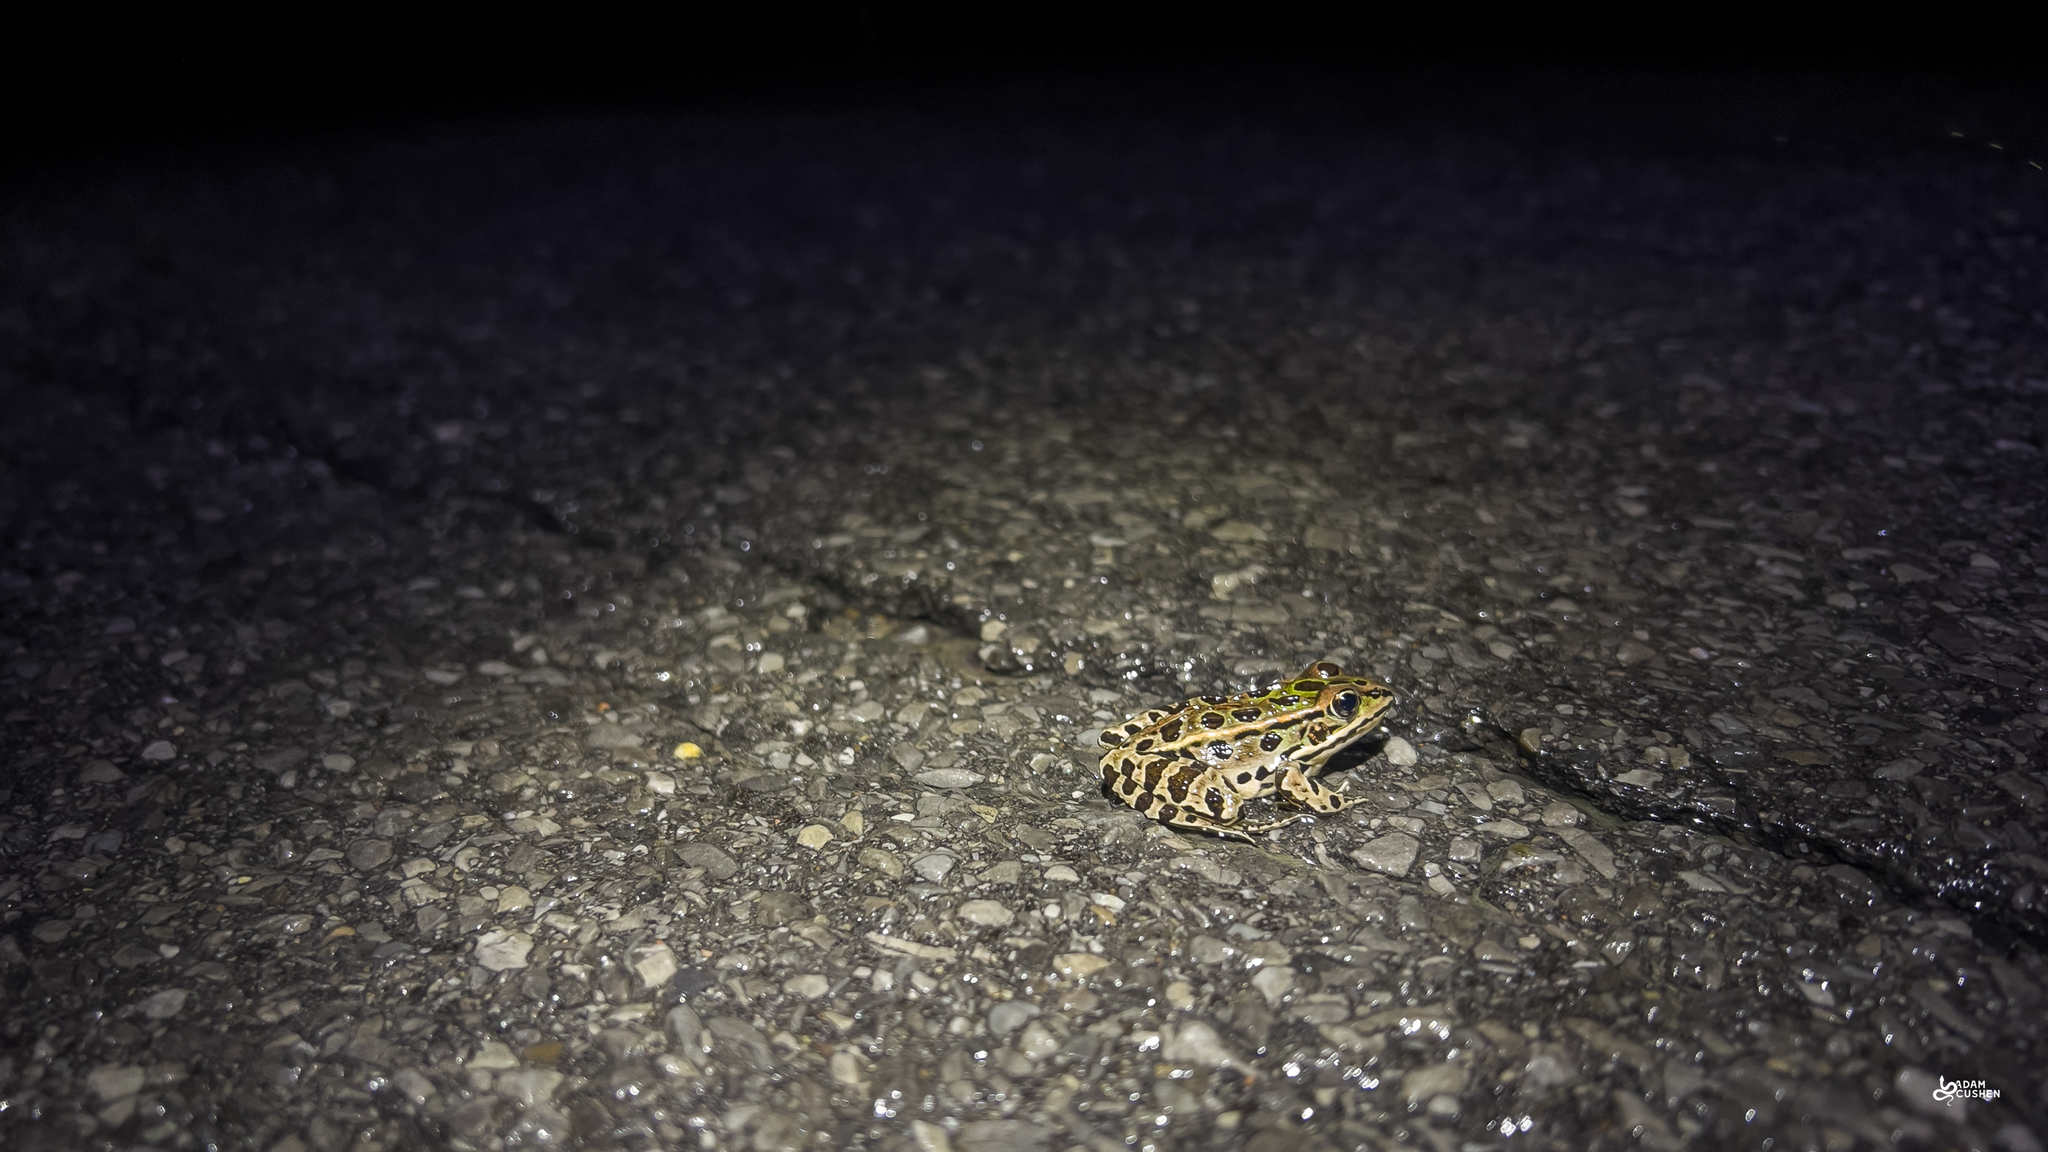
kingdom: Animalia
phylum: Chordata
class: Amphibia
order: Anura
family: Ranidae
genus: Lithobates
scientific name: Lithobates pipiens
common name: Northern leopard frog
